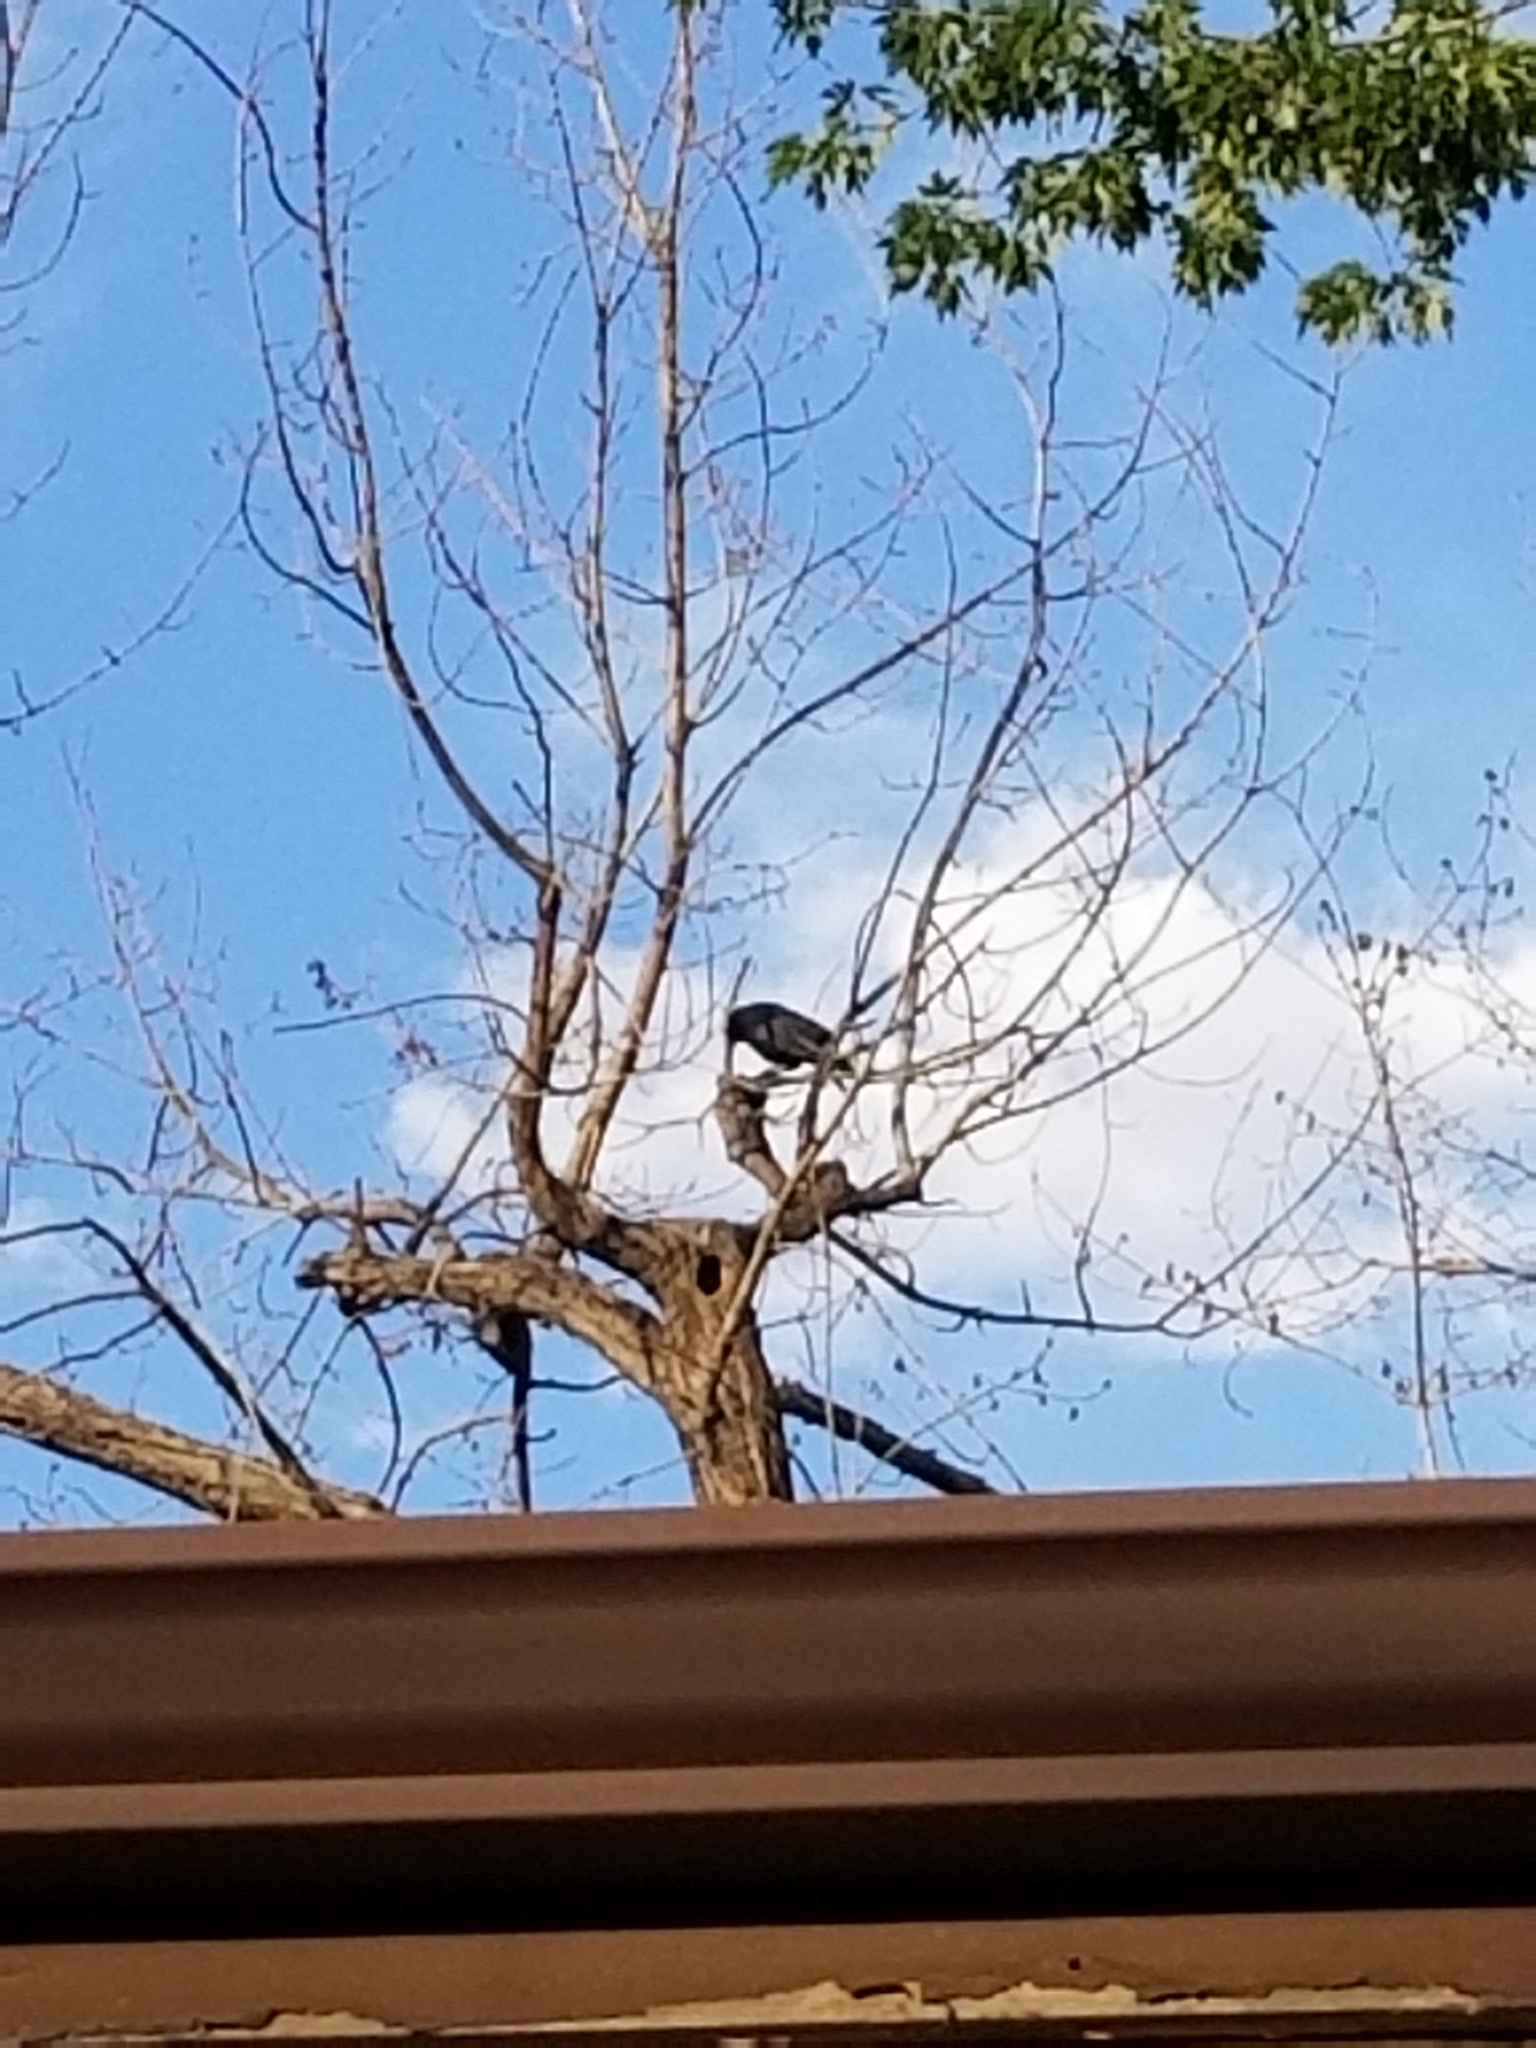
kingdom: Animalia
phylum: Chordata
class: Aves
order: Passeriformes
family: Corvidae
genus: Corvus
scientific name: Corvus brachyrhynchos
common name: American crow
